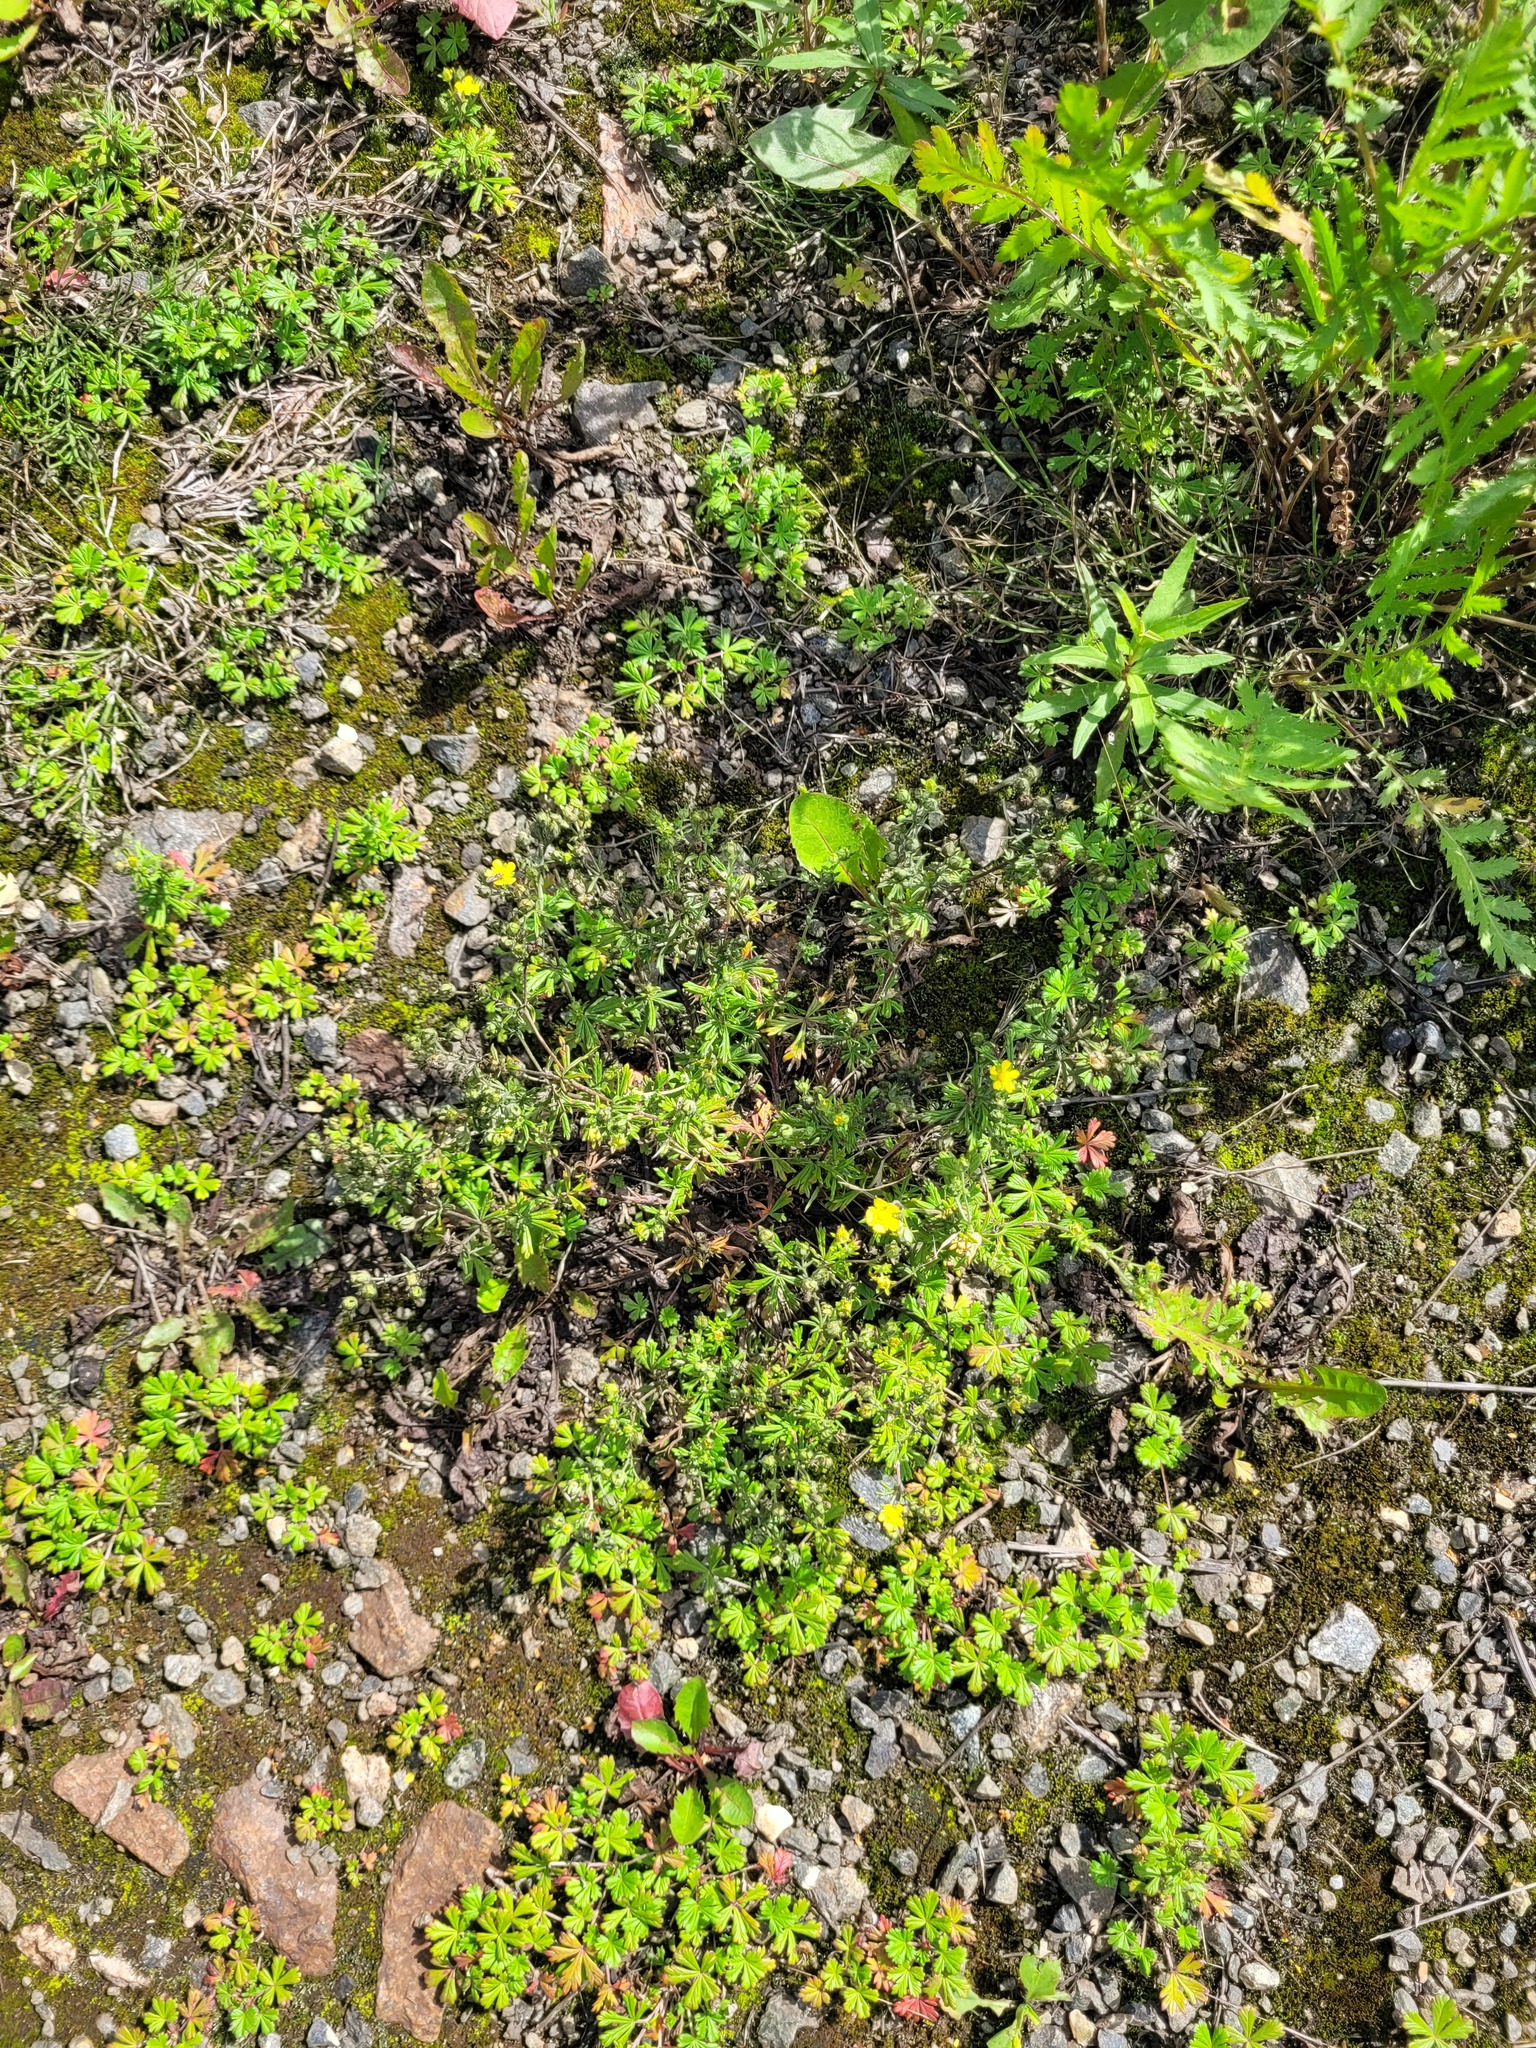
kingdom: Plantae
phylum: Tracheophyta
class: Magnoliopsida
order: Rosales
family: Rosaceae
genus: Potentilla
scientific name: Potentilla argentea
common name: Hoary cinquefoil
